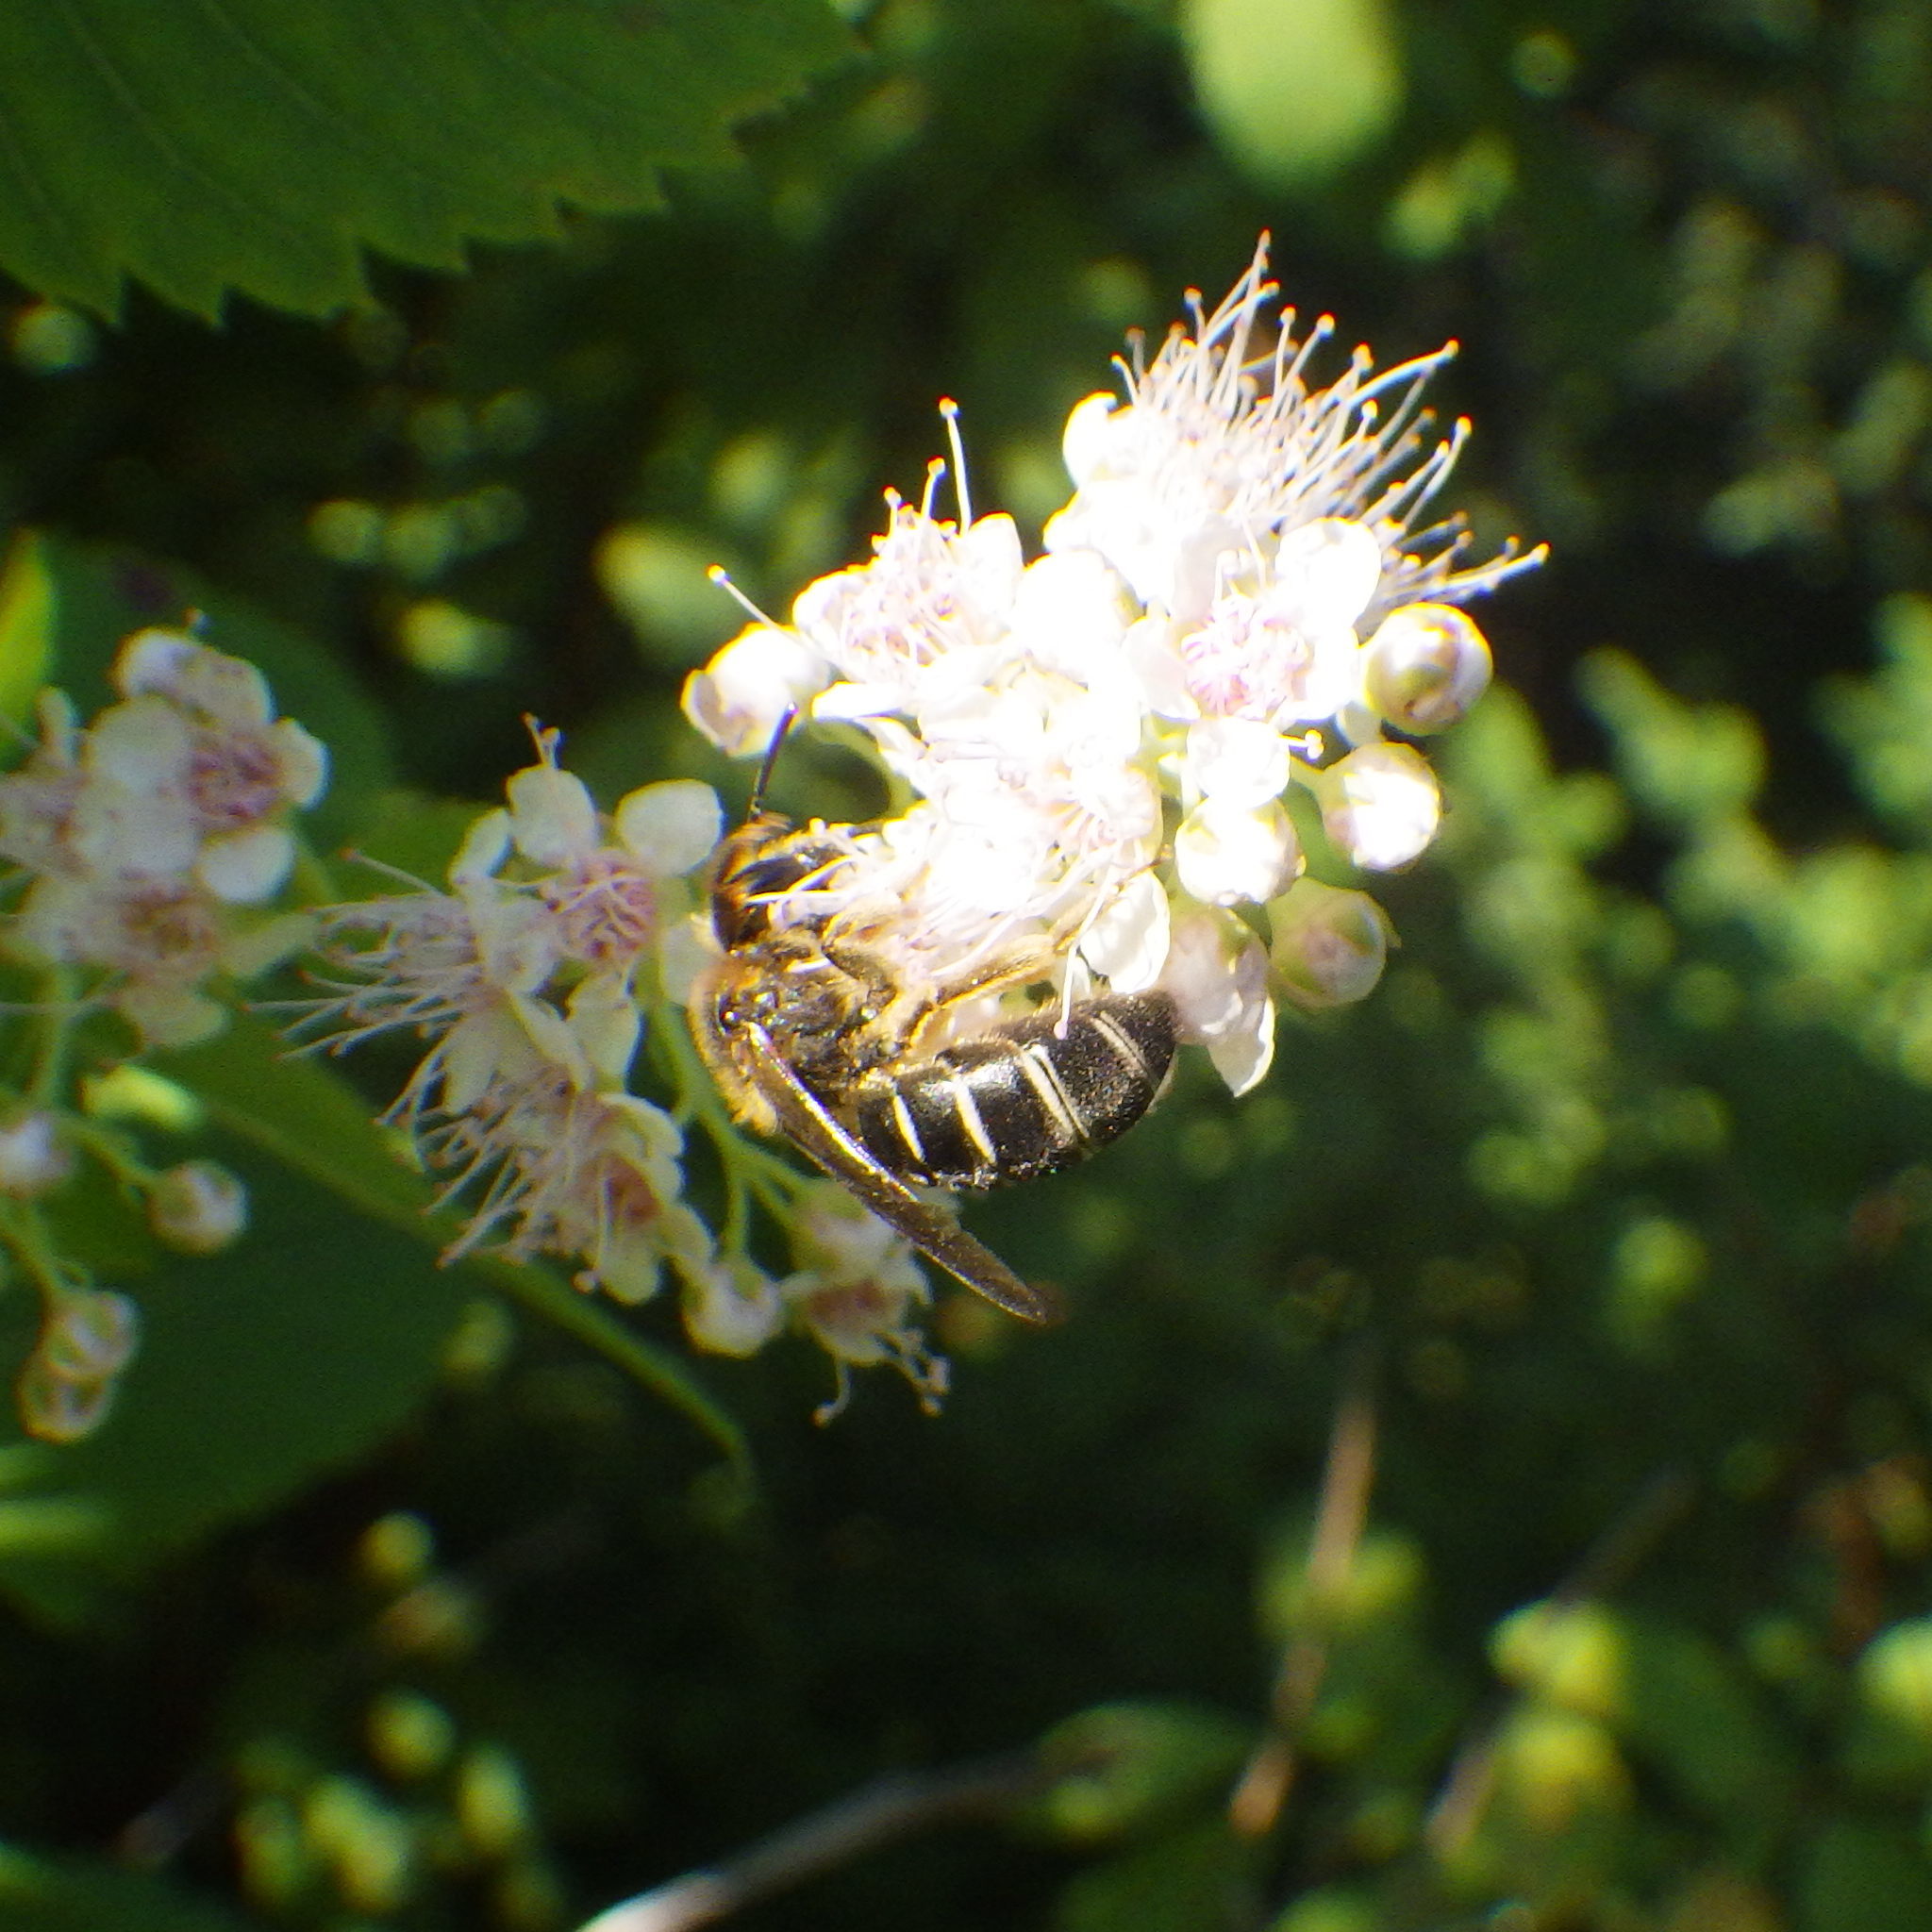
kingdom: Animalia
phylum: Arthropoda
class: Insecta
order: Hymenoptera
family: Halictidae
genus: Halictus
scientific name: Halictus rubicundus
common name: Orange-legged furrow bee
